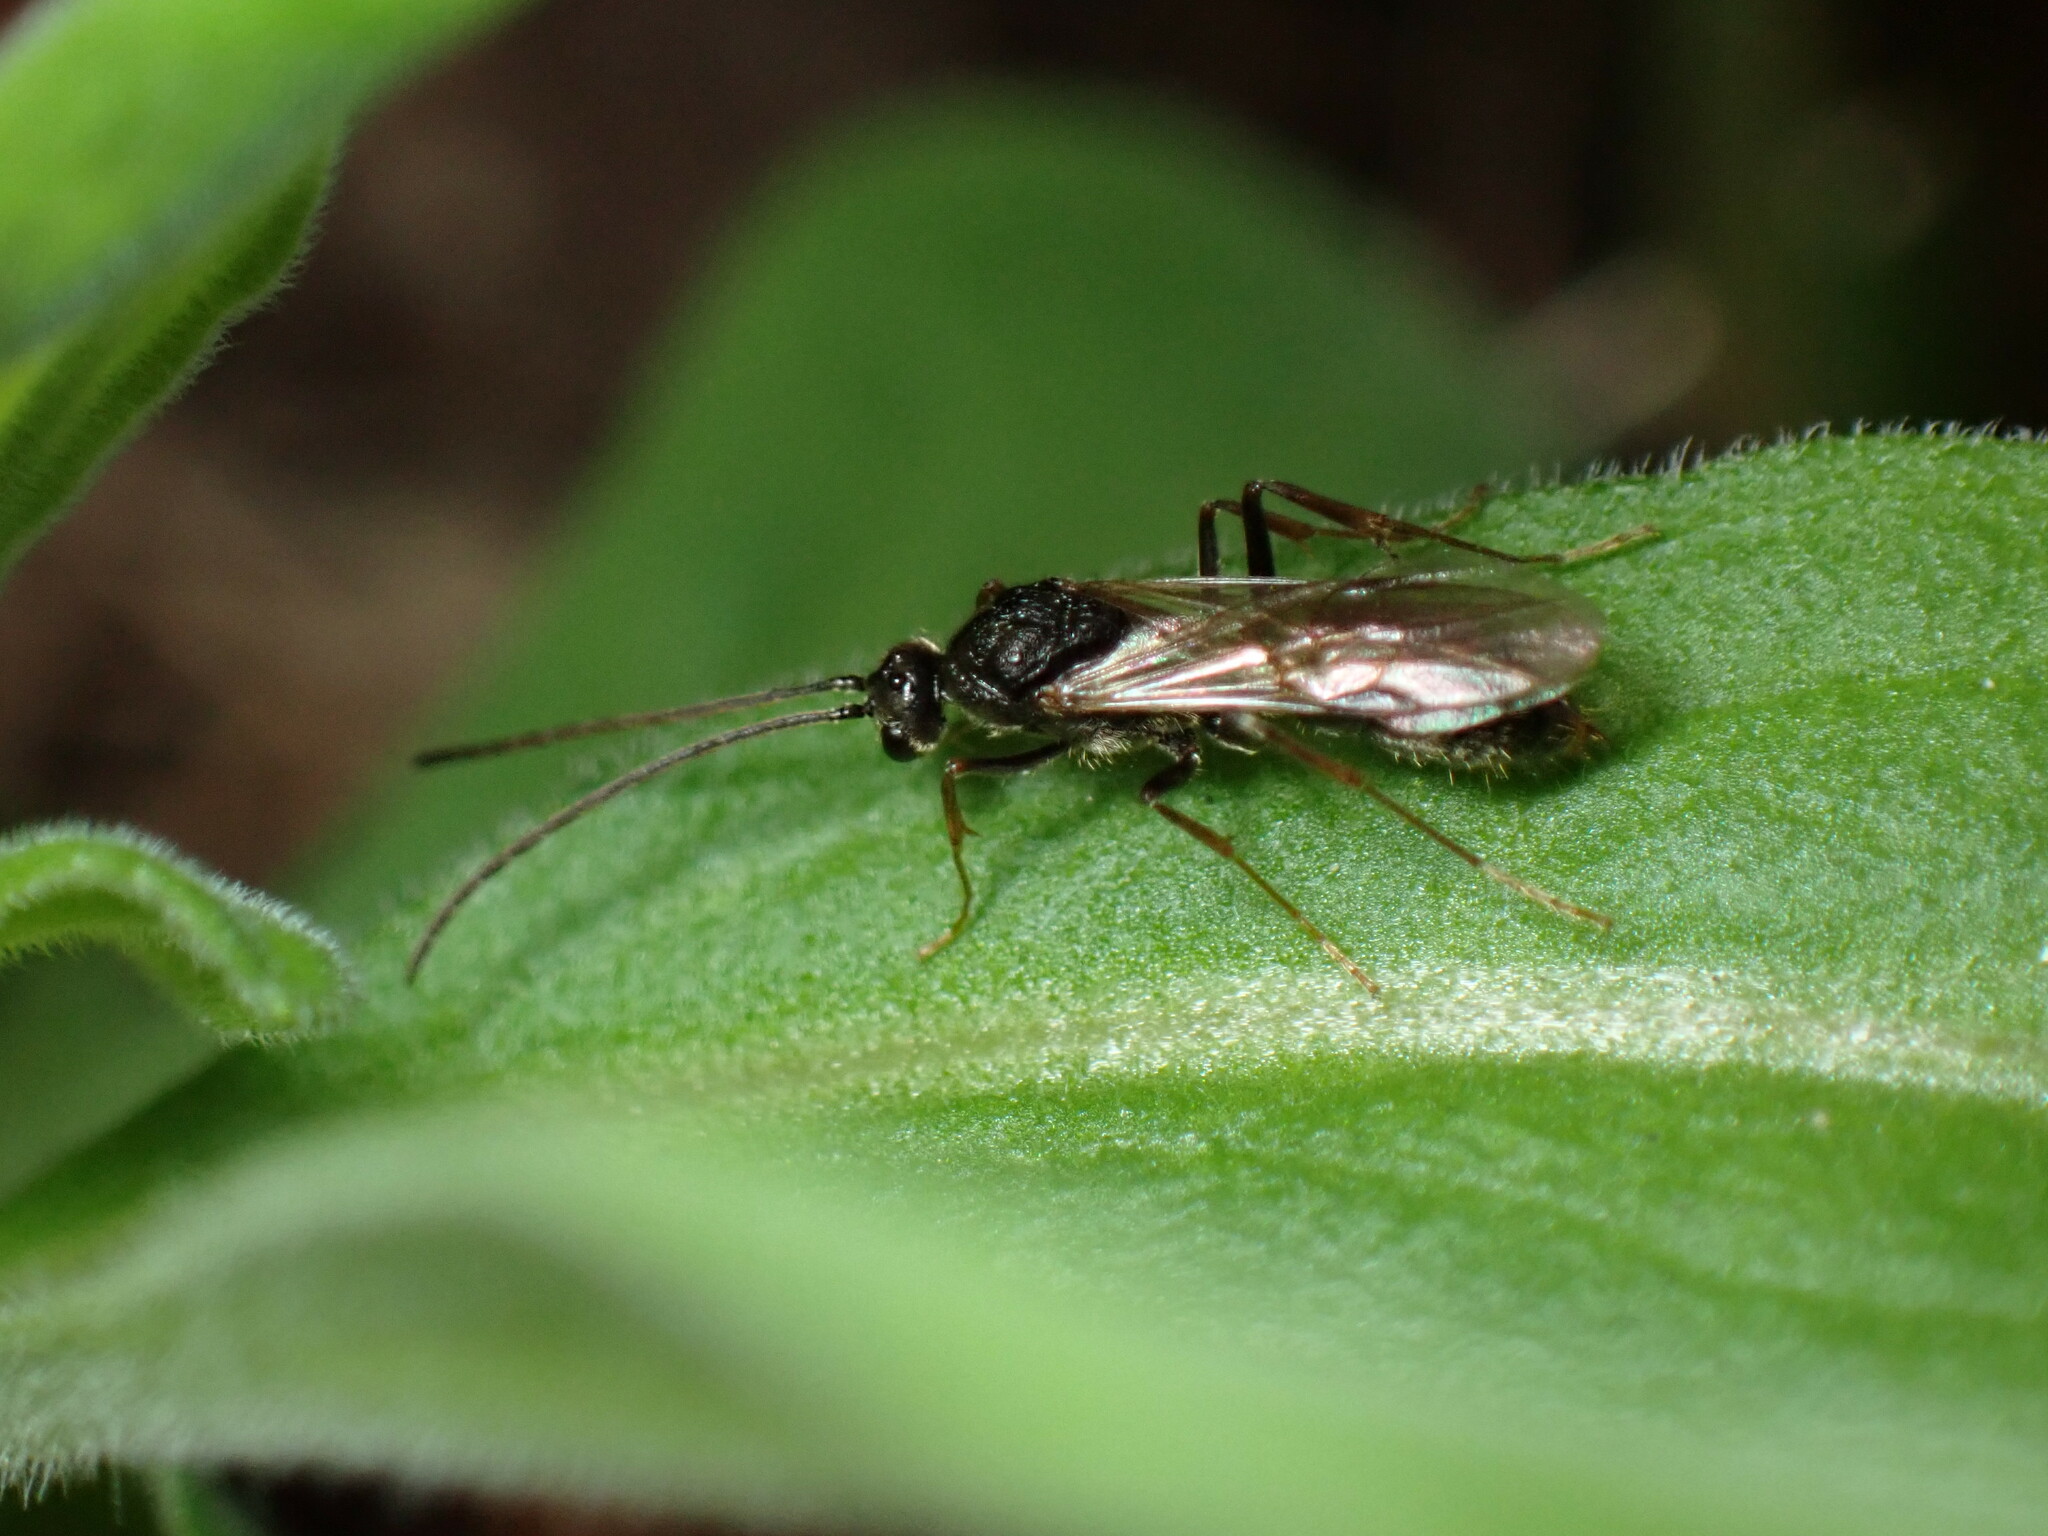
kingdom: Animalia
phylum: Arthropoda
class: Insecta
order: Hymenoptera
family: Formicidae
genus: Odontoponera
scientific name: Odontoponera denticulata
